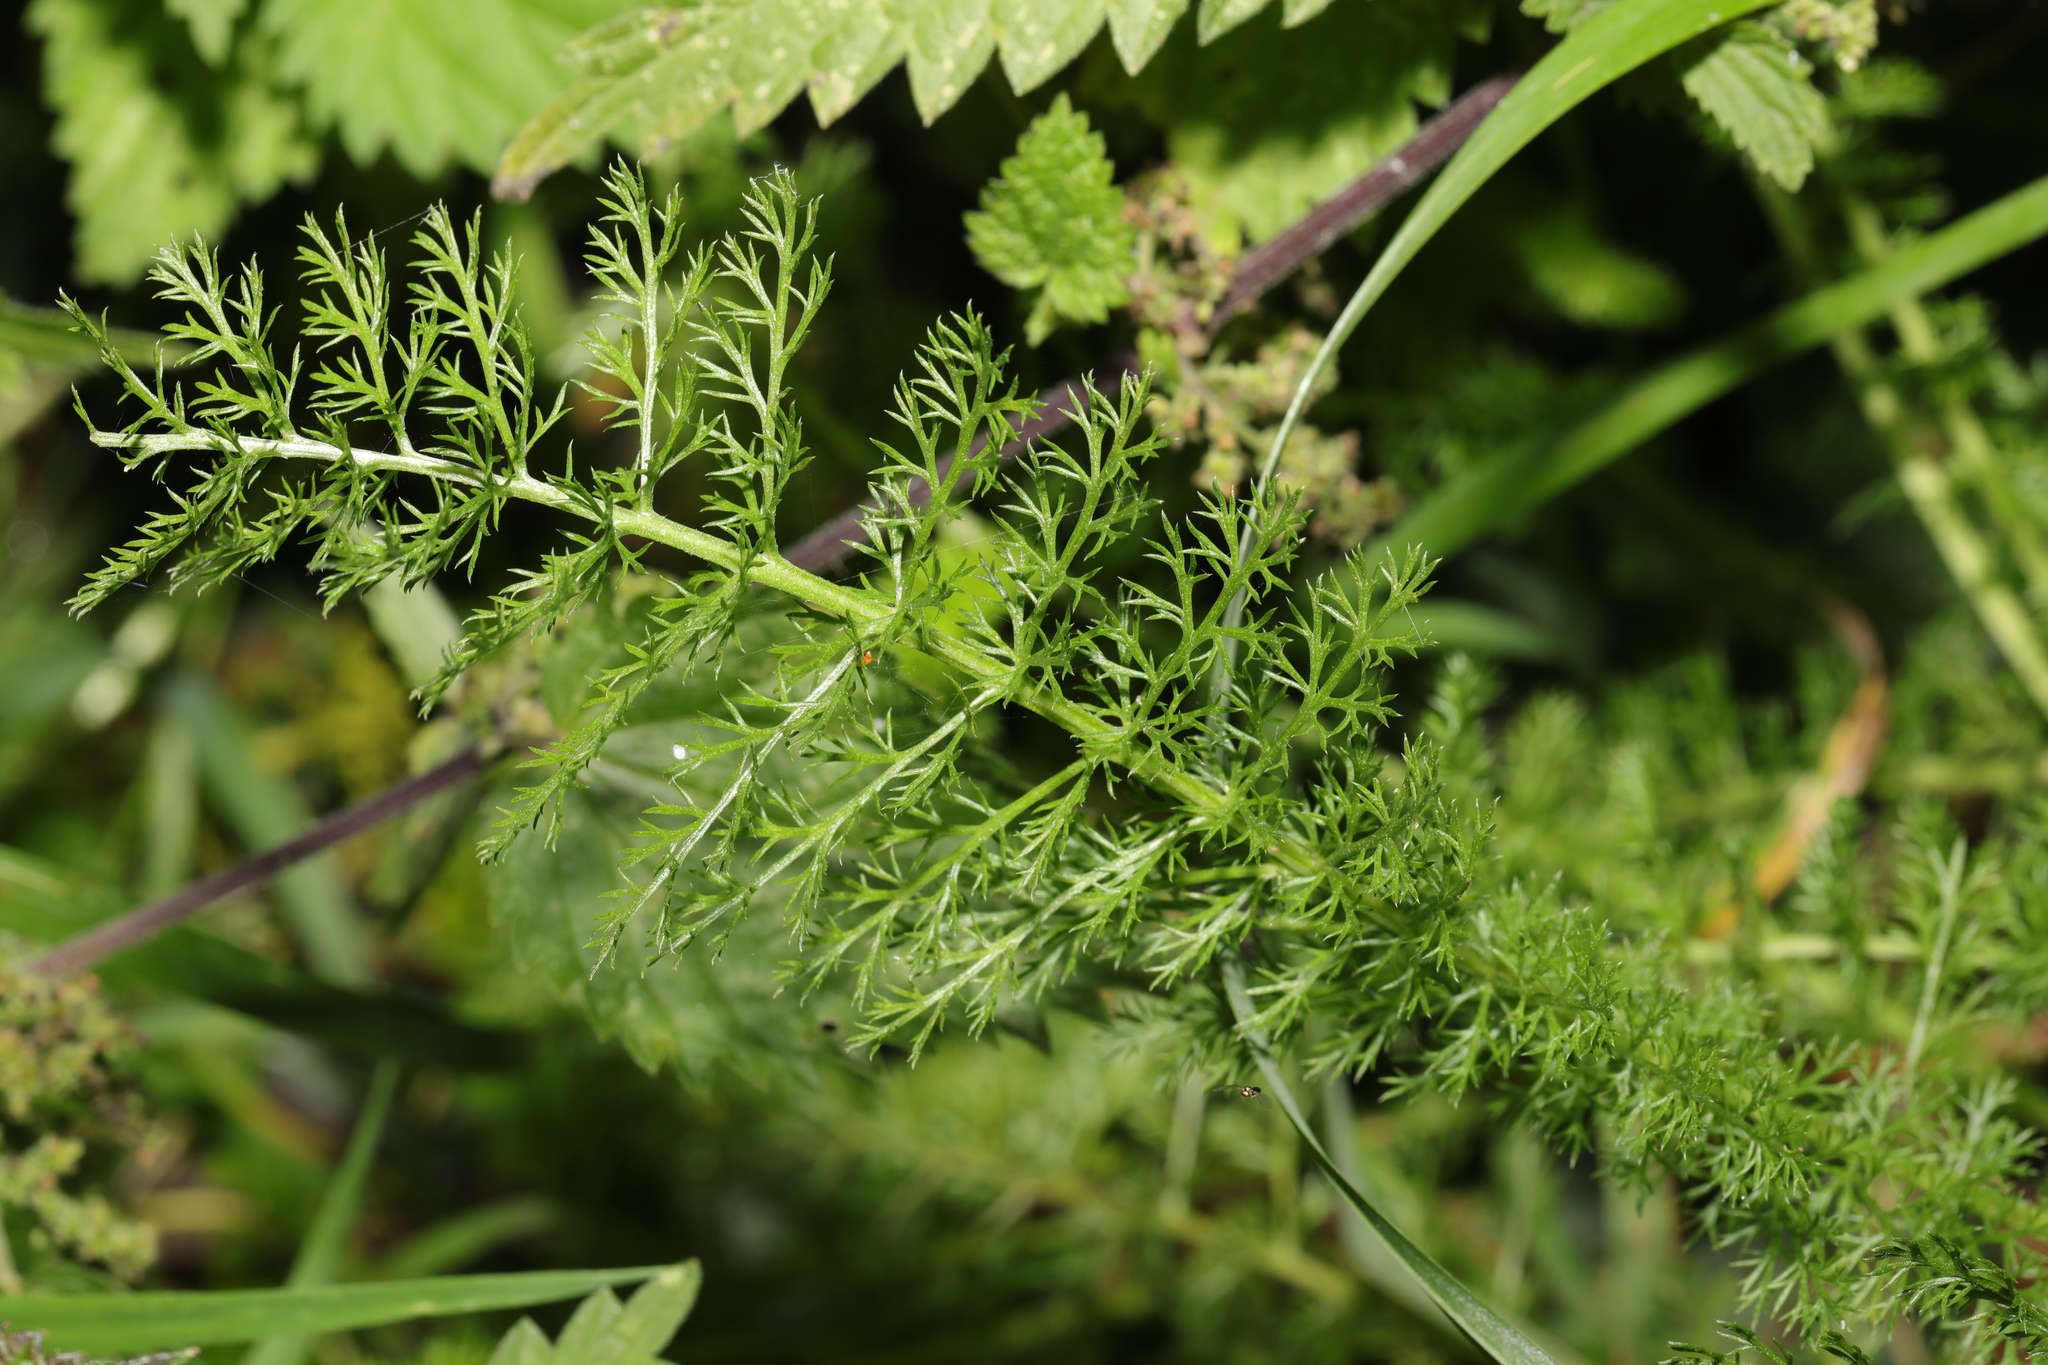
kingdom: Plantae
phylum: Tracheophyta
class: Magnoliopsida
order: Asterales
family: Asteraceae
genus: Achillea
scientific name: Achillea millefolium
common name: Yarrow
